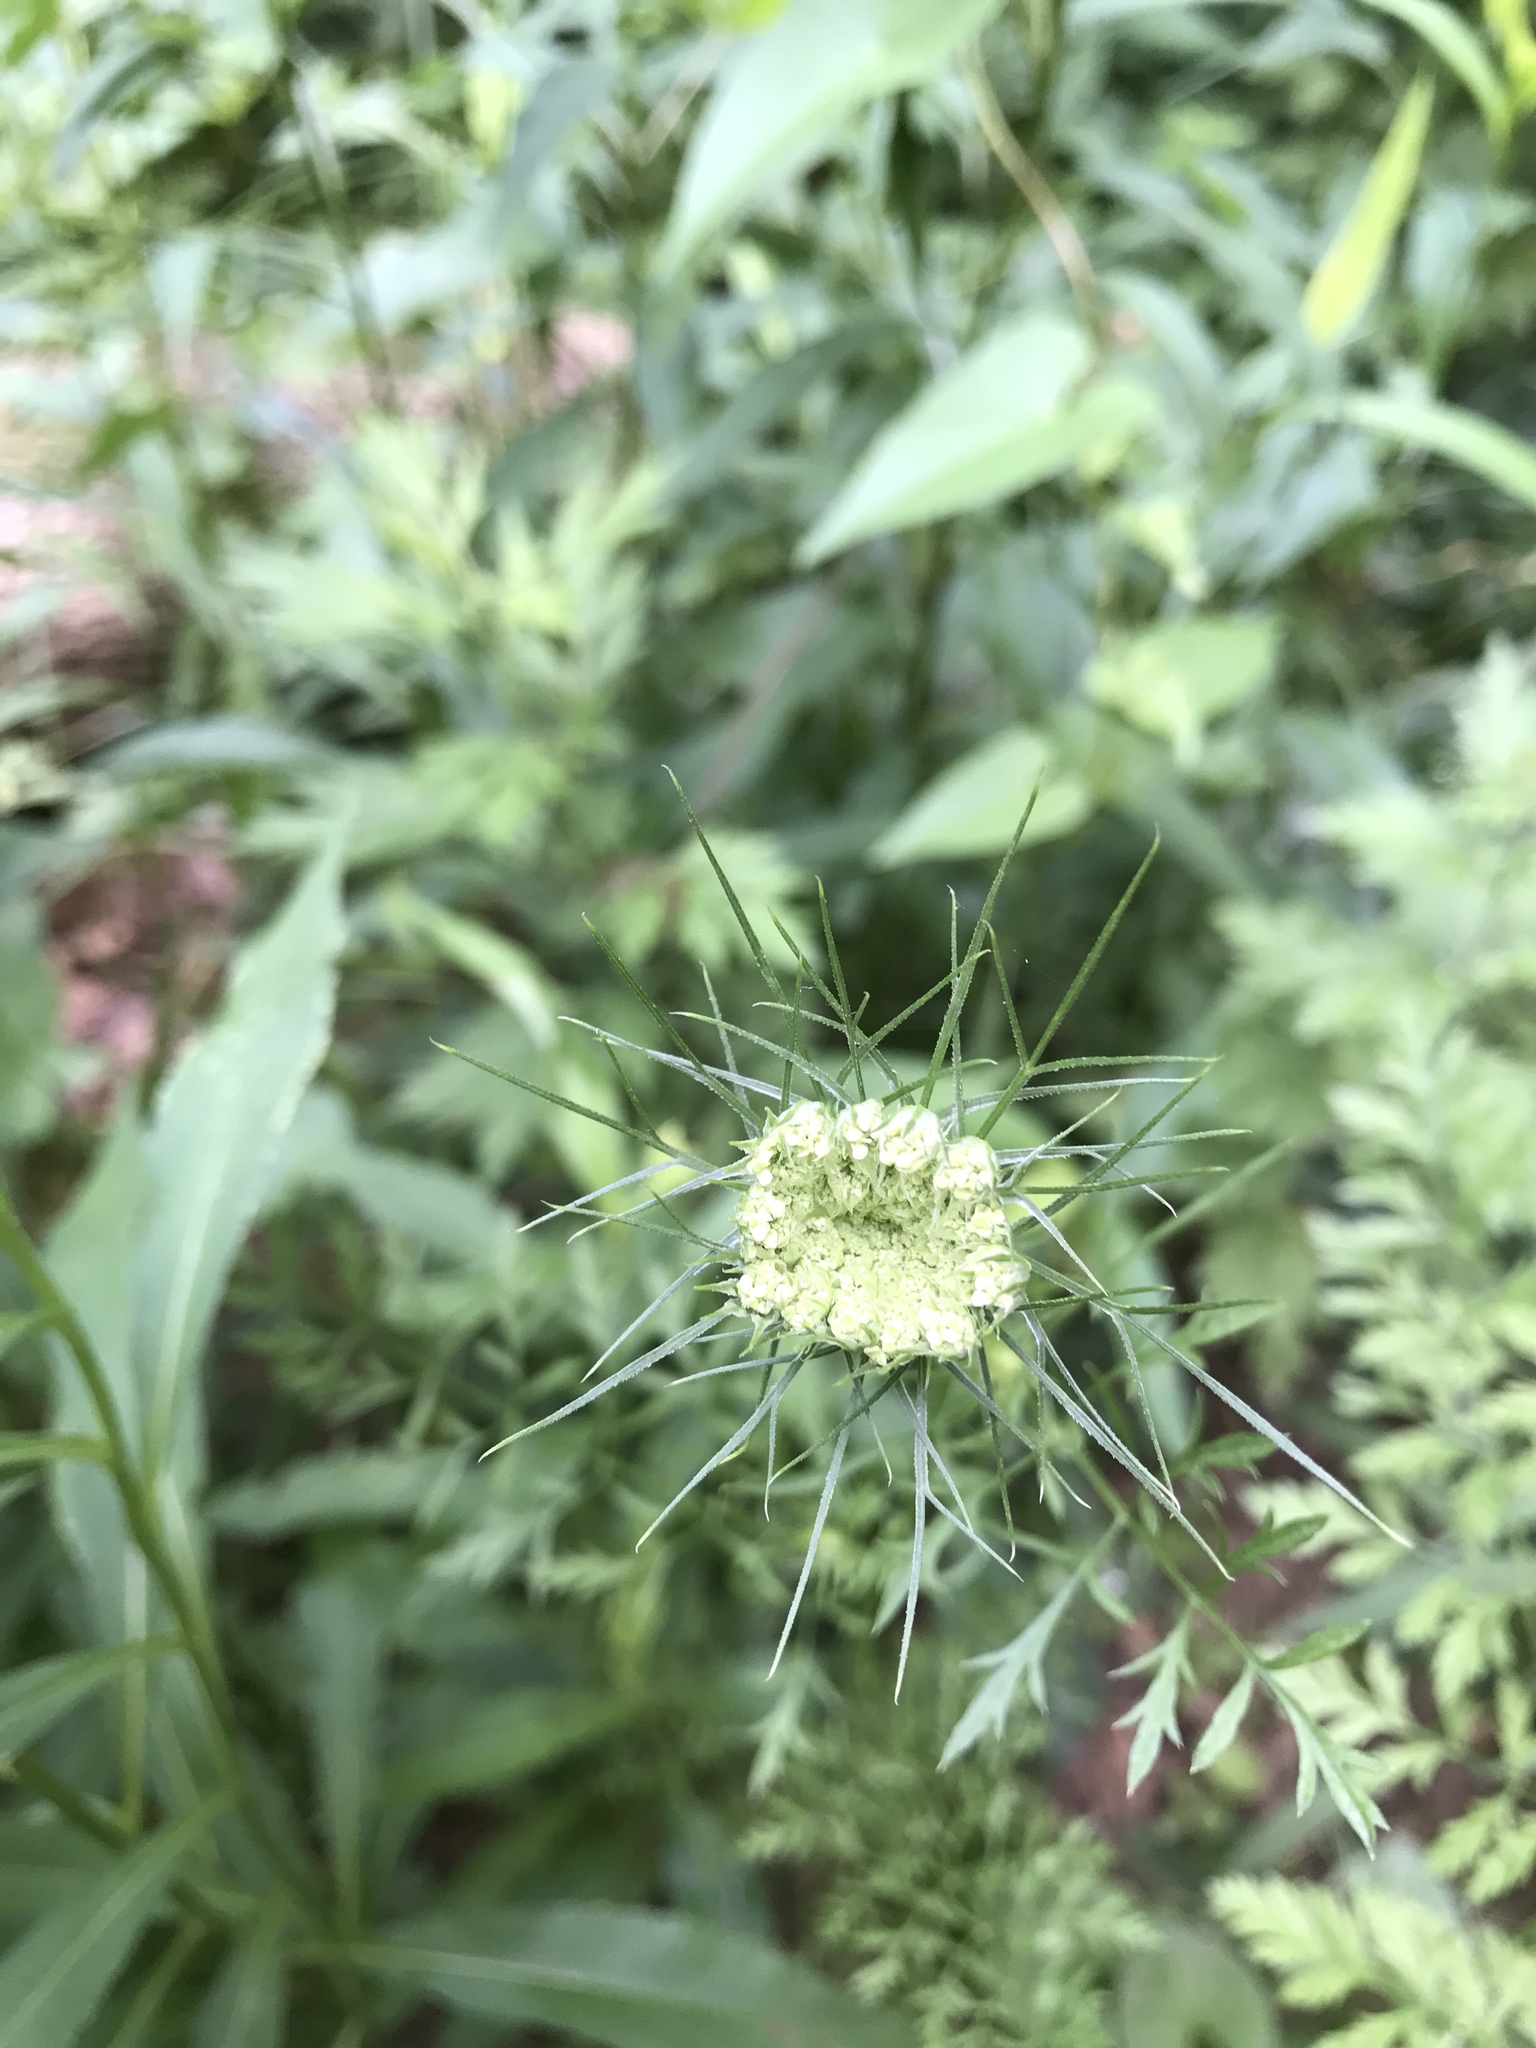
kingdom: Plantae
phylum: Tracheophyta
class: Magnoliopsida
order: Apiales
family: Apiaceae
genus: Daucus
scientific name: Daucus carota
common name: Wild carrot
